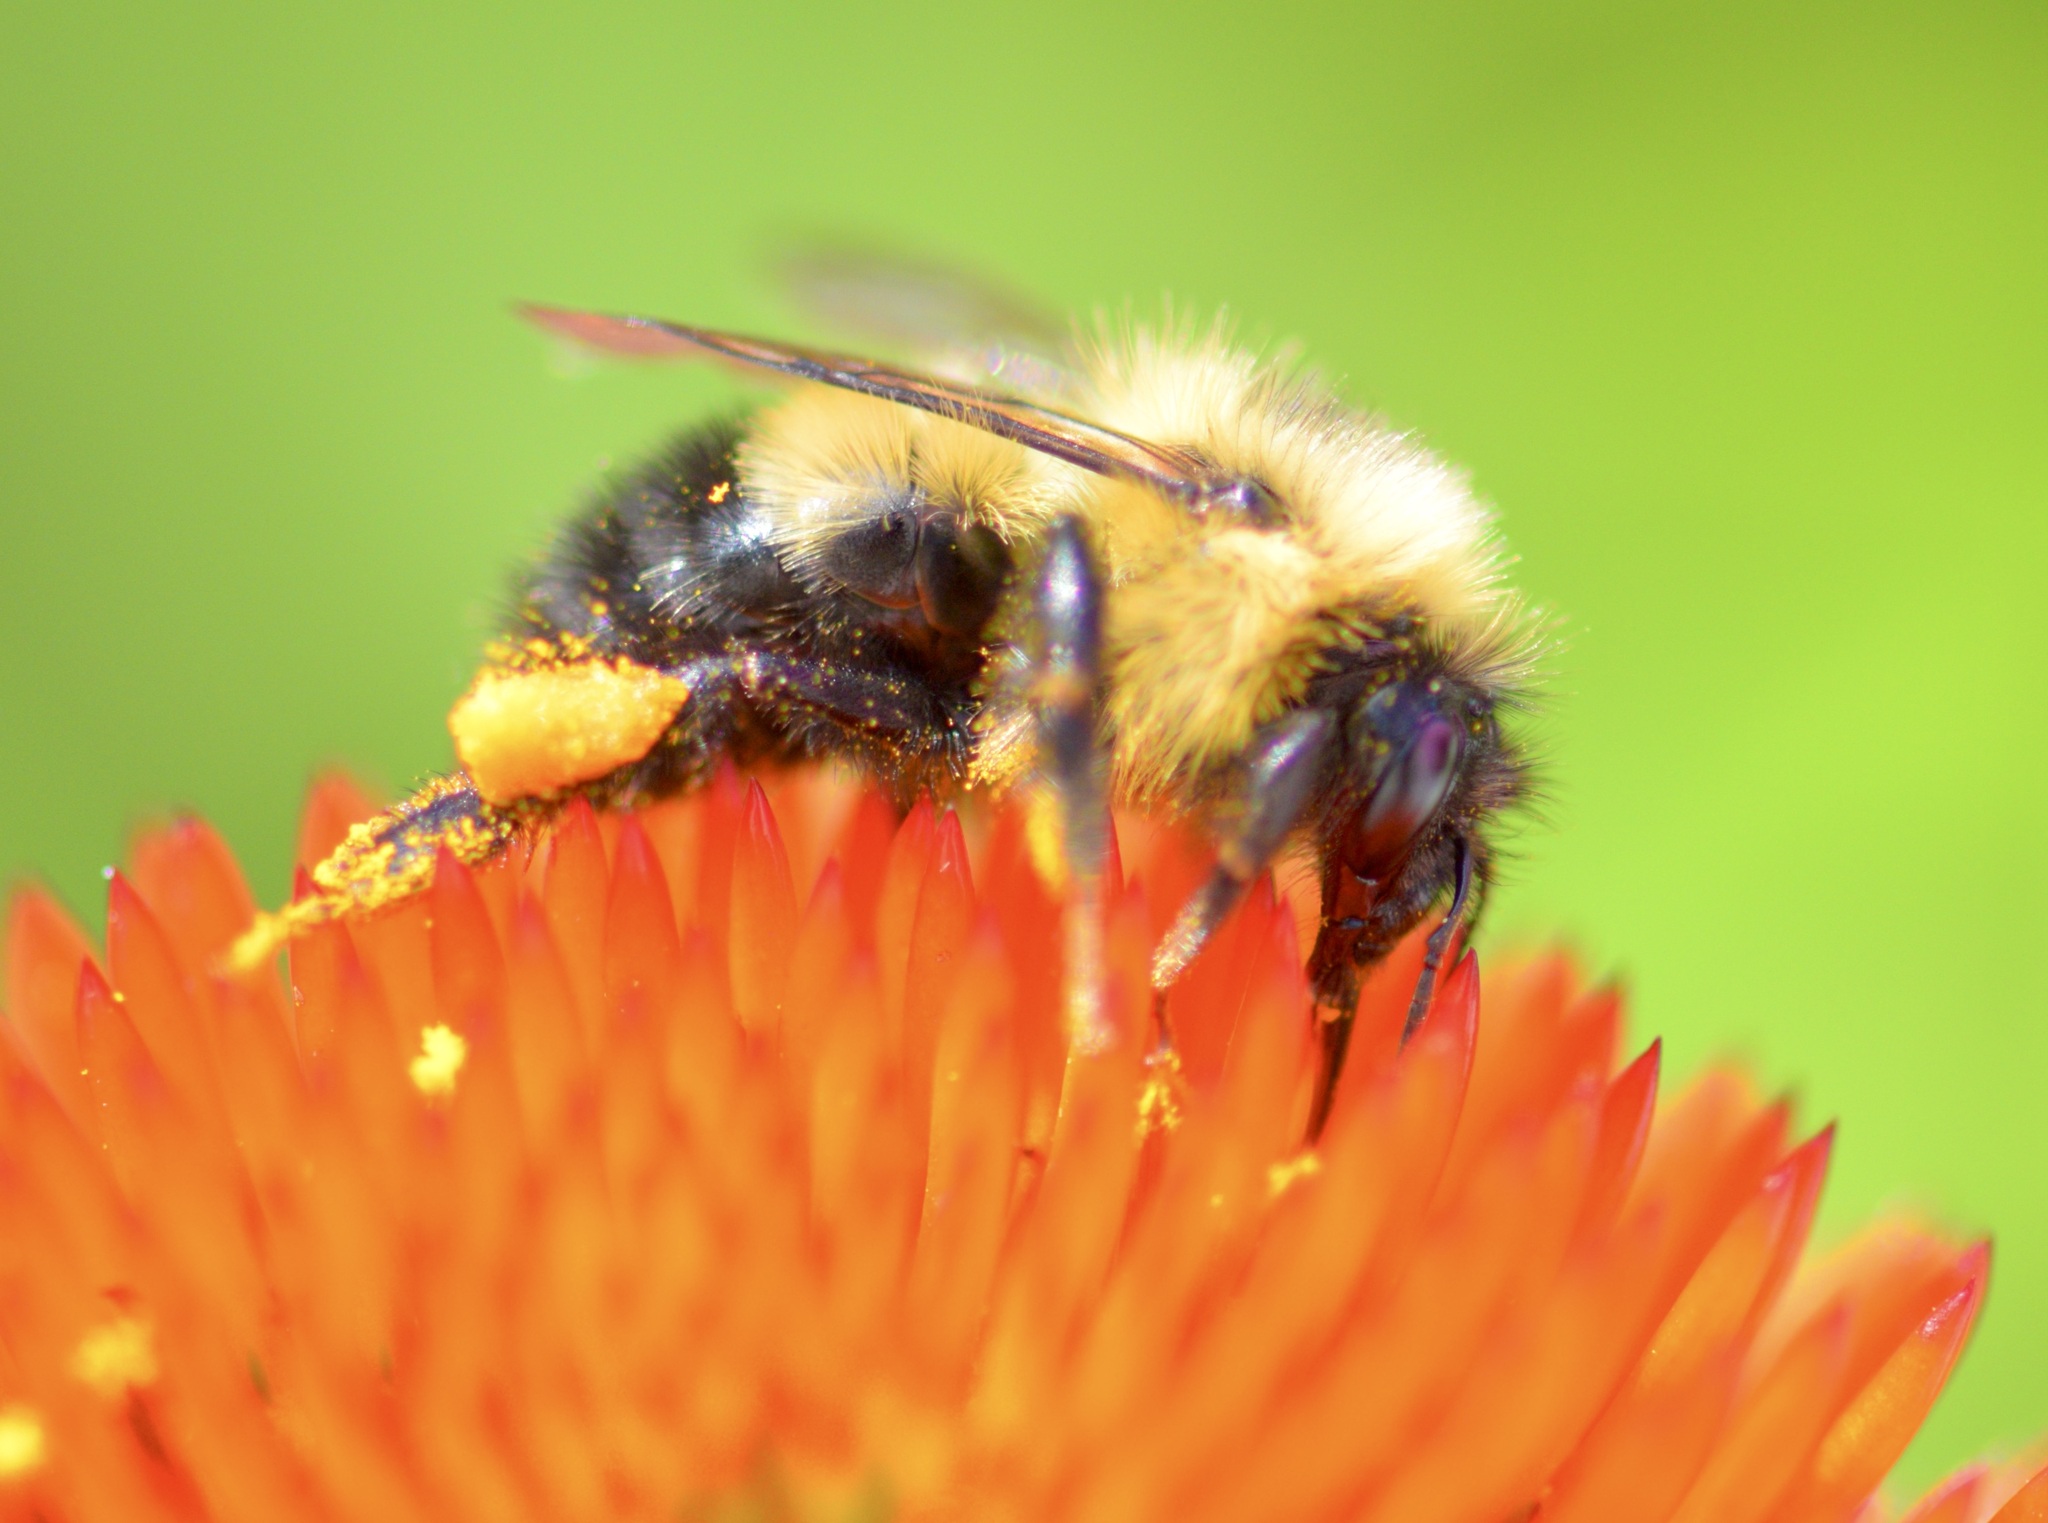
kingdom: Animalia
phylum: Arthropoda
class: Insecta
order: Hymenoptera
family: Apidae
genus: Bombus
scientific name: Bombus vagans
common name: Half-black bumble bee
